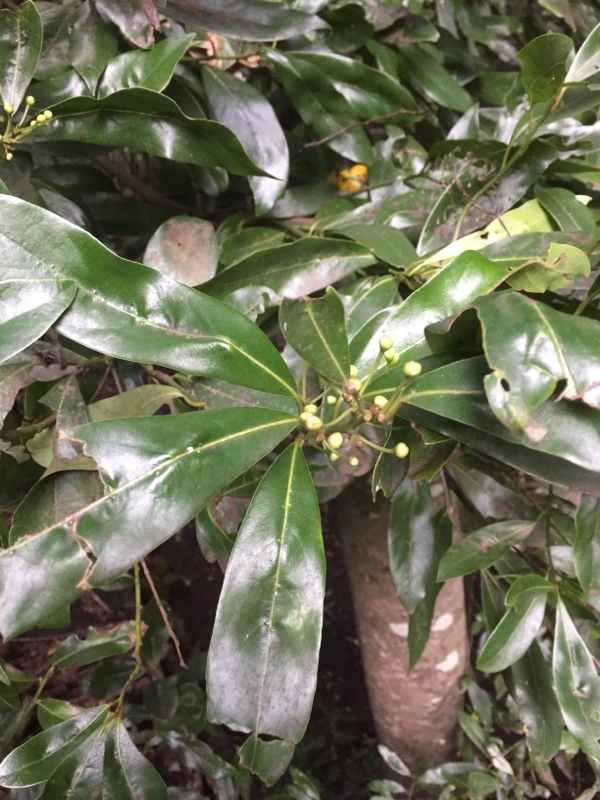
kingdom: Plantae
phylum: Tracheophyta
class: Magnoliopsida
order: Laurales
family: Lauraceae
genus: Mespilodaphne
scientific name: Mespilodaphne foetens
